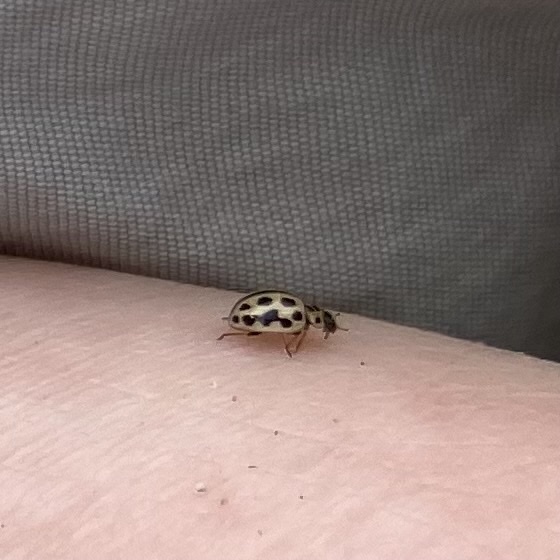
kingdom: Animalia
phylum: Arthropoda
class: Insecta
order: Coleoptera
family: Coccinellidae
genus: Tytthaspis
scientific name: Tytthaspis sedecimpunctata
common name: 16-spot ladybird
